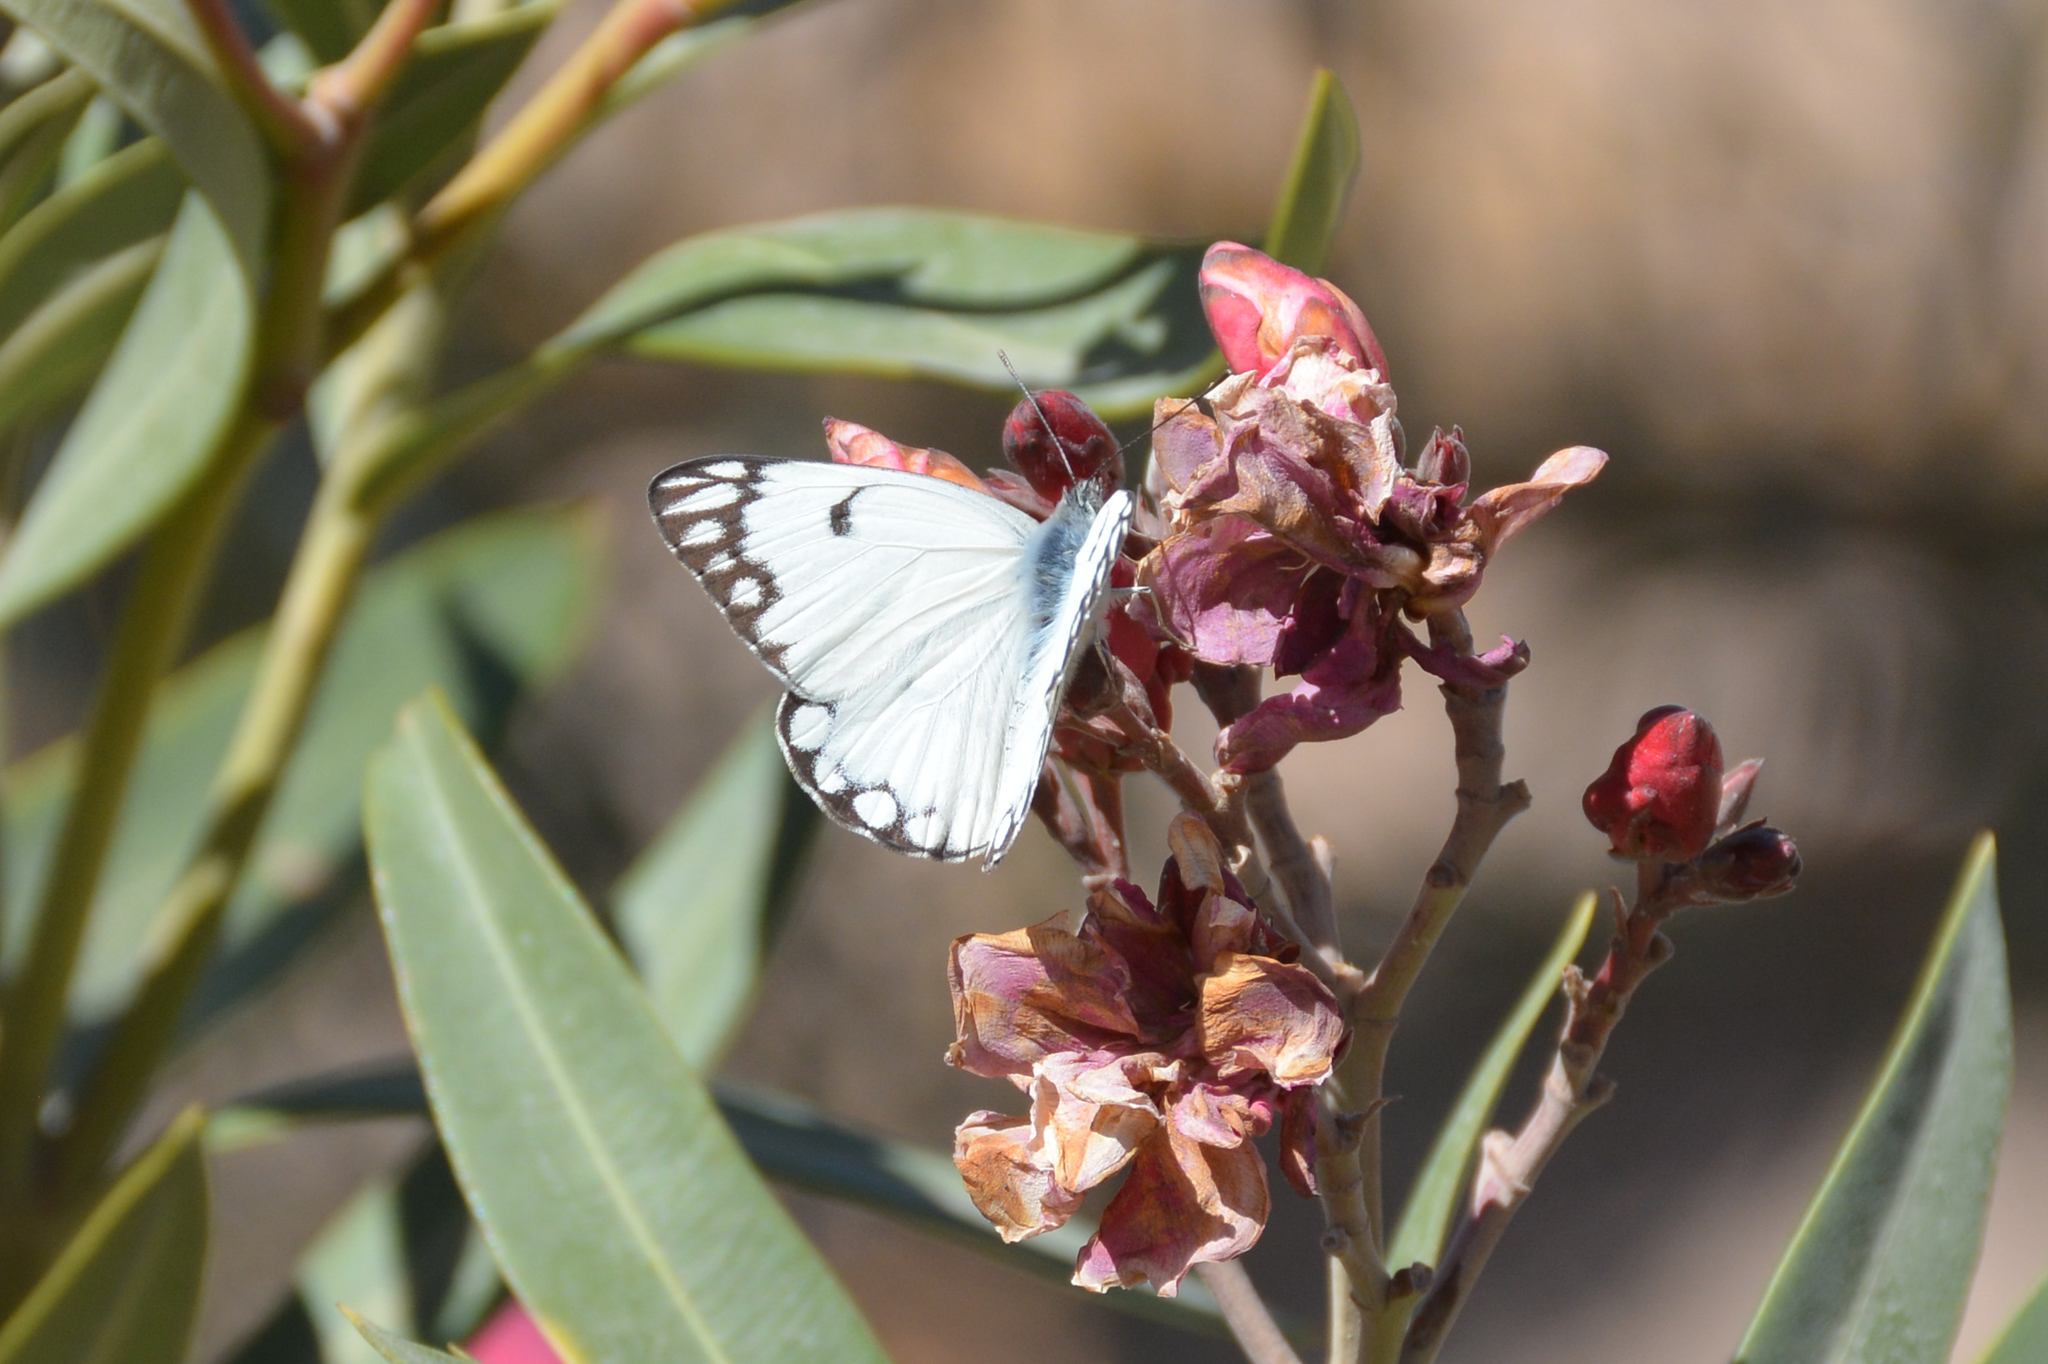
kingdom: Animalia
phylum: Arthropoda
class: Insecta
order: Lepidoptera
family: Pieridae
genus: Belenois
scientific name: Belenois aurota
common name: Brown-veined white
